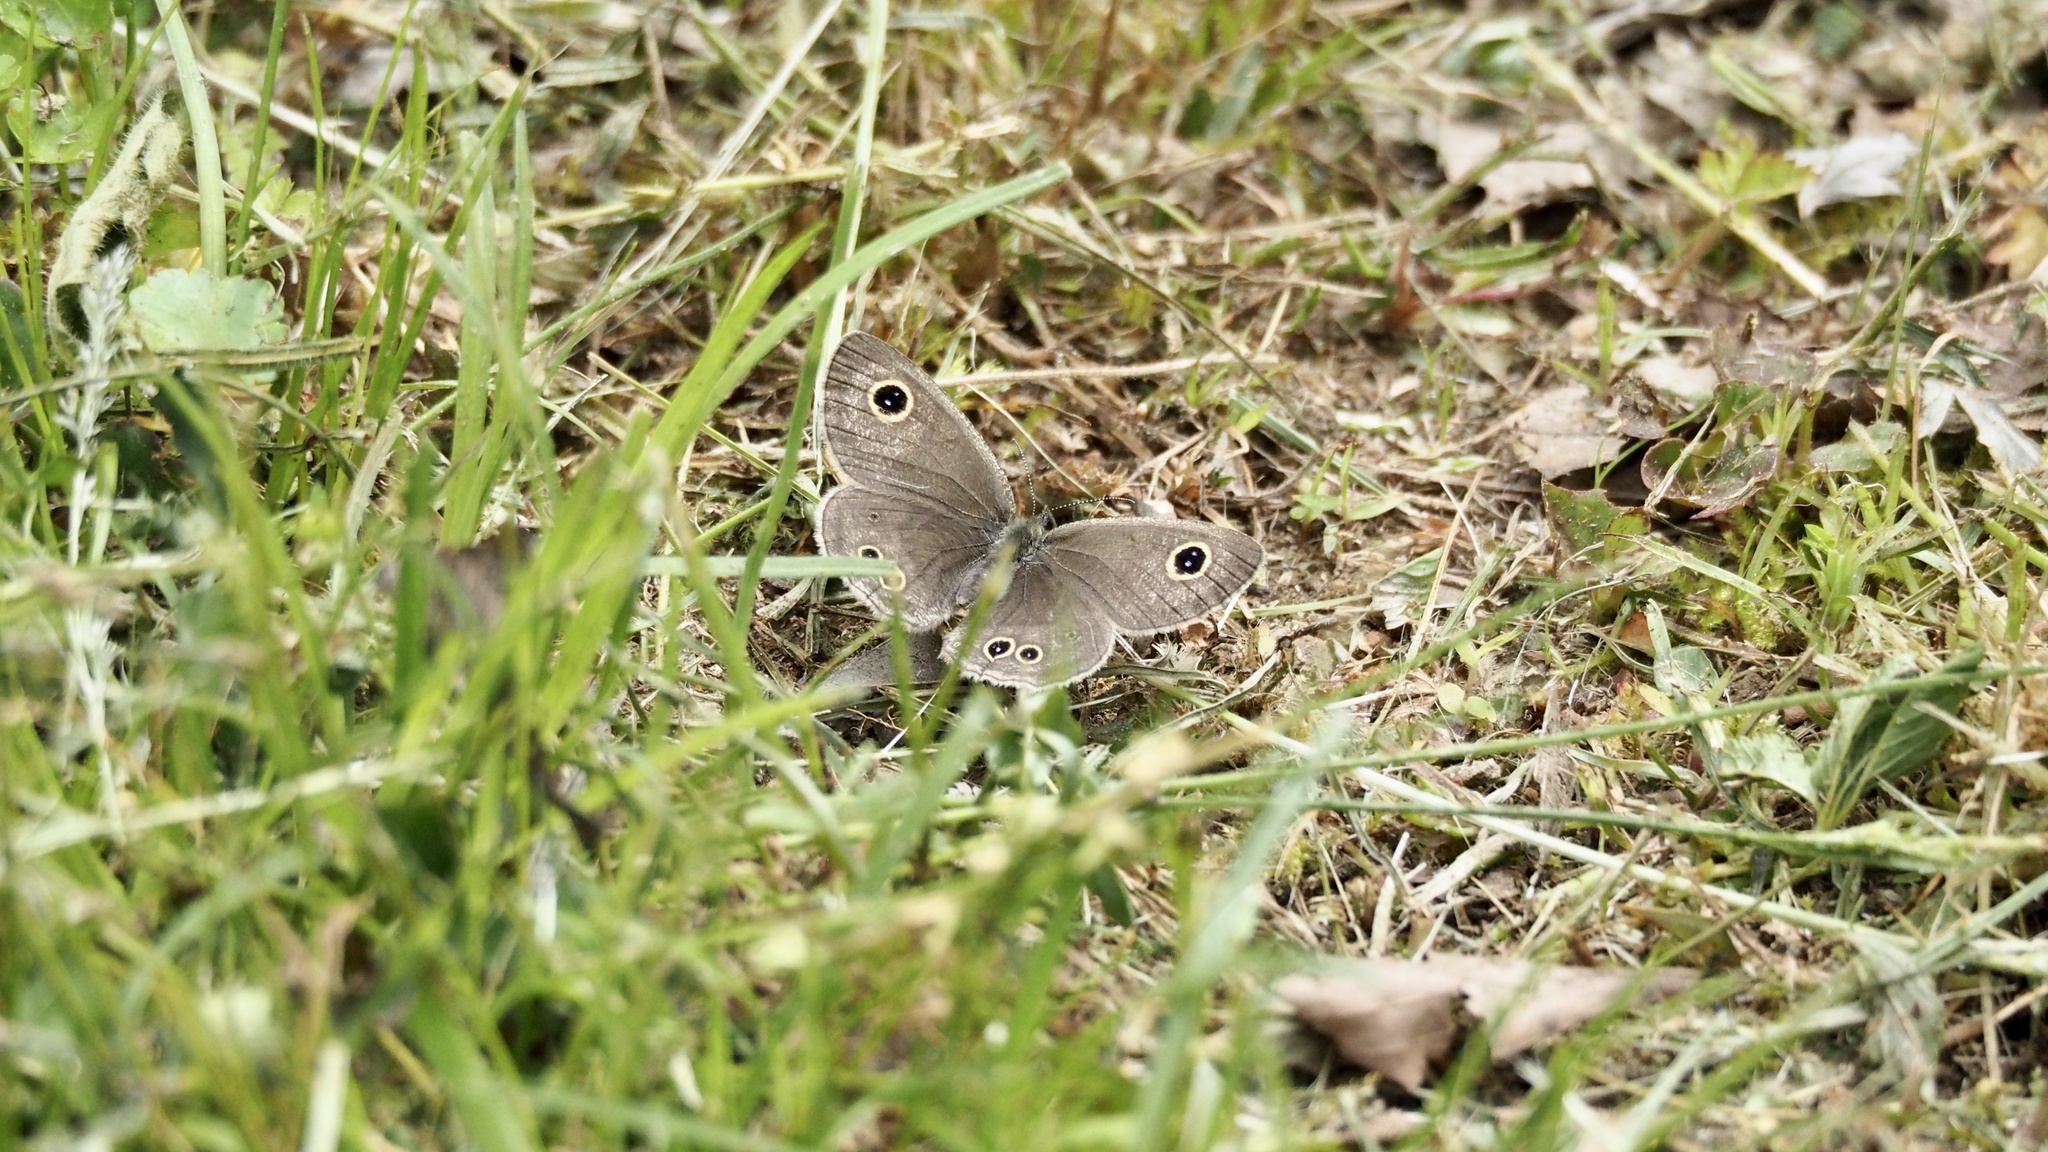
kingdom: Animalia
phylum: Arthropoda
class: Insecta
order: Lepidoptera
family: Nymphalidae
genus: Ypthima
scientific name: Ypthima argus
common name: Common fivering
